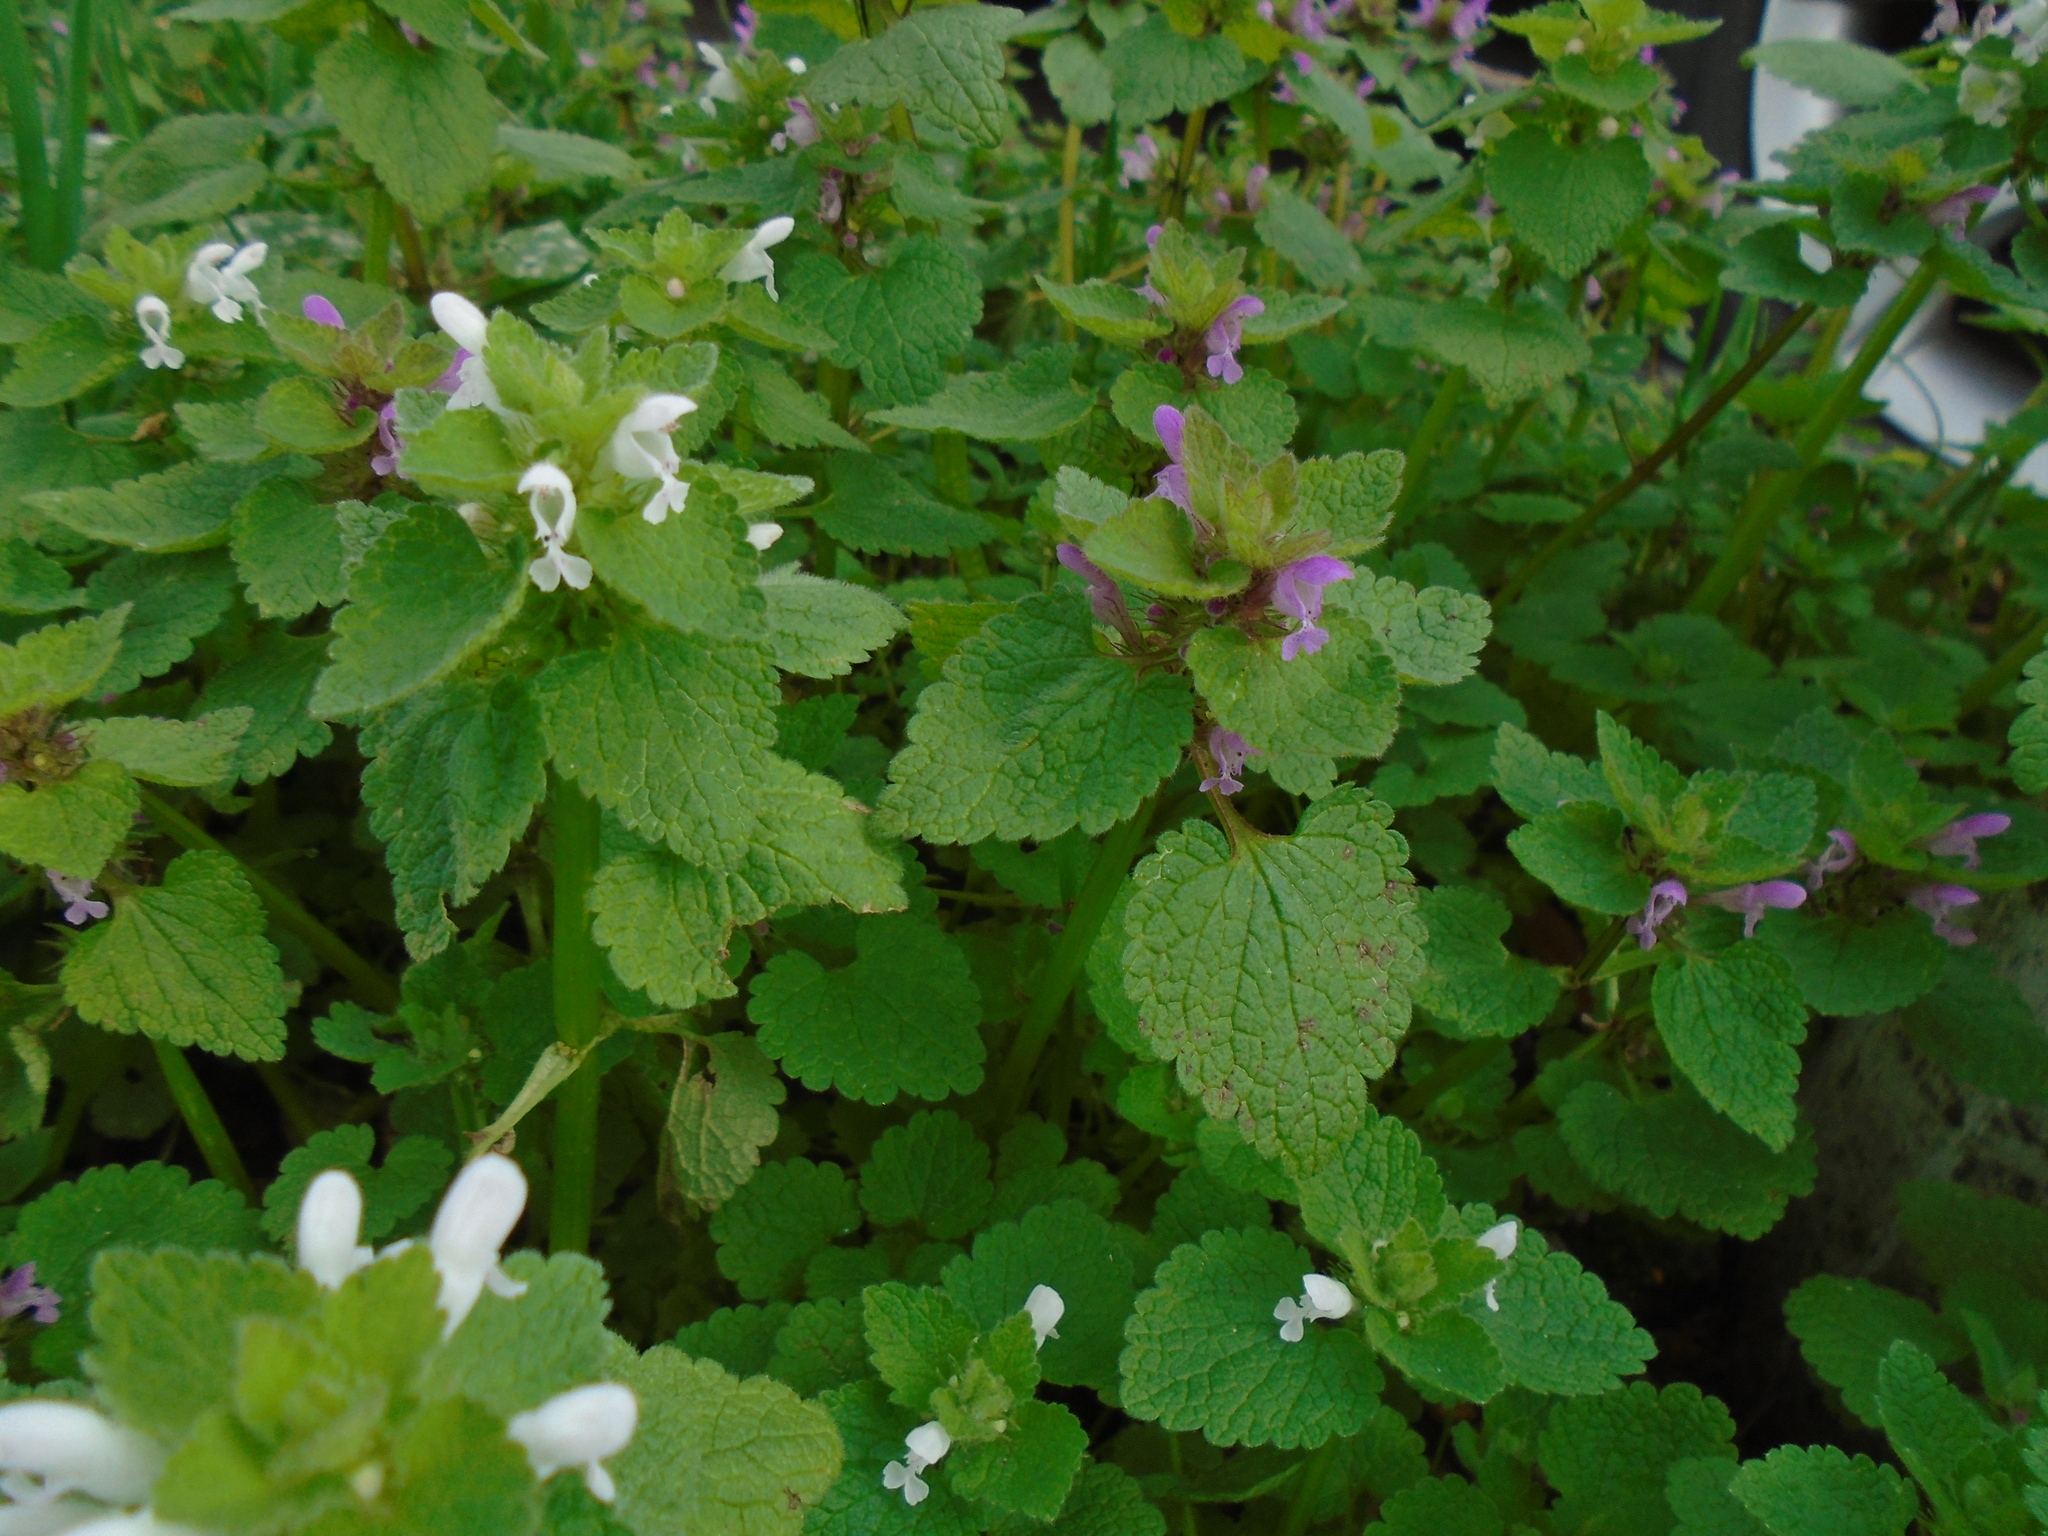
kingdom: Plantae
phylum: Tracheophyta
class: Magnoliopsida
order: Lamiales
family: Lamiaceae
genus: Lamium
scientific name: Lamium purpureum
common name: Red dead-nettle
